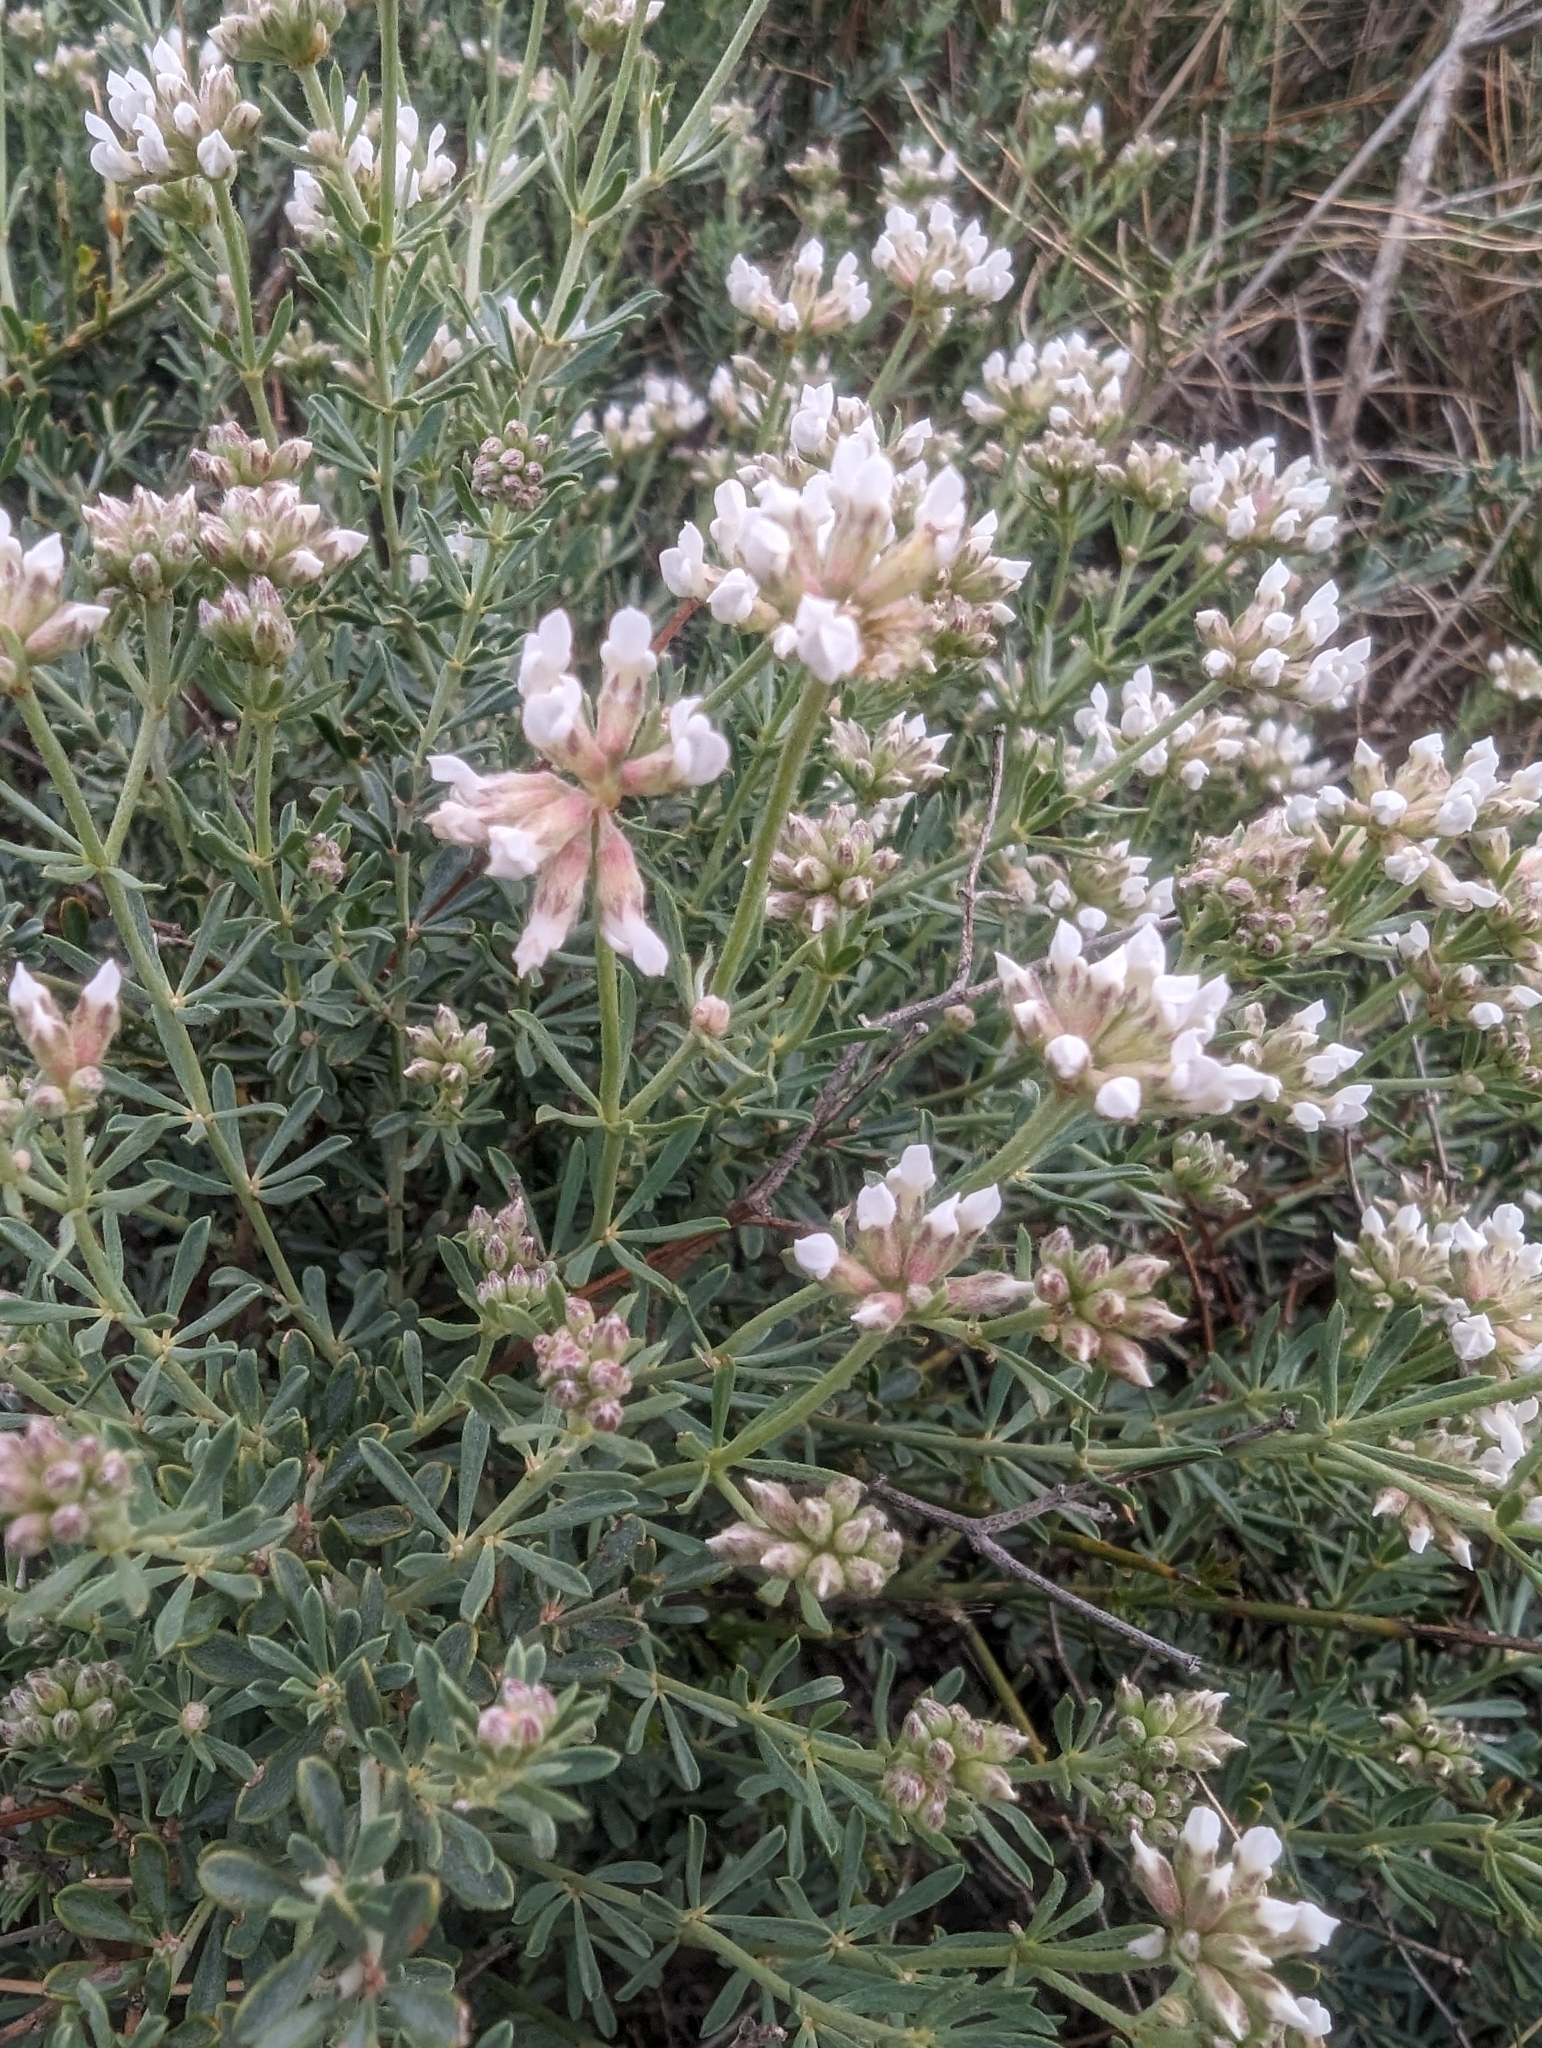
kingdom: Plantae
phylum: Tracheophyta
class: Magnoliopsida
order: Fabales
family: Fabaceae
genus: Lotus
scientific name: Lotus dorycnium
